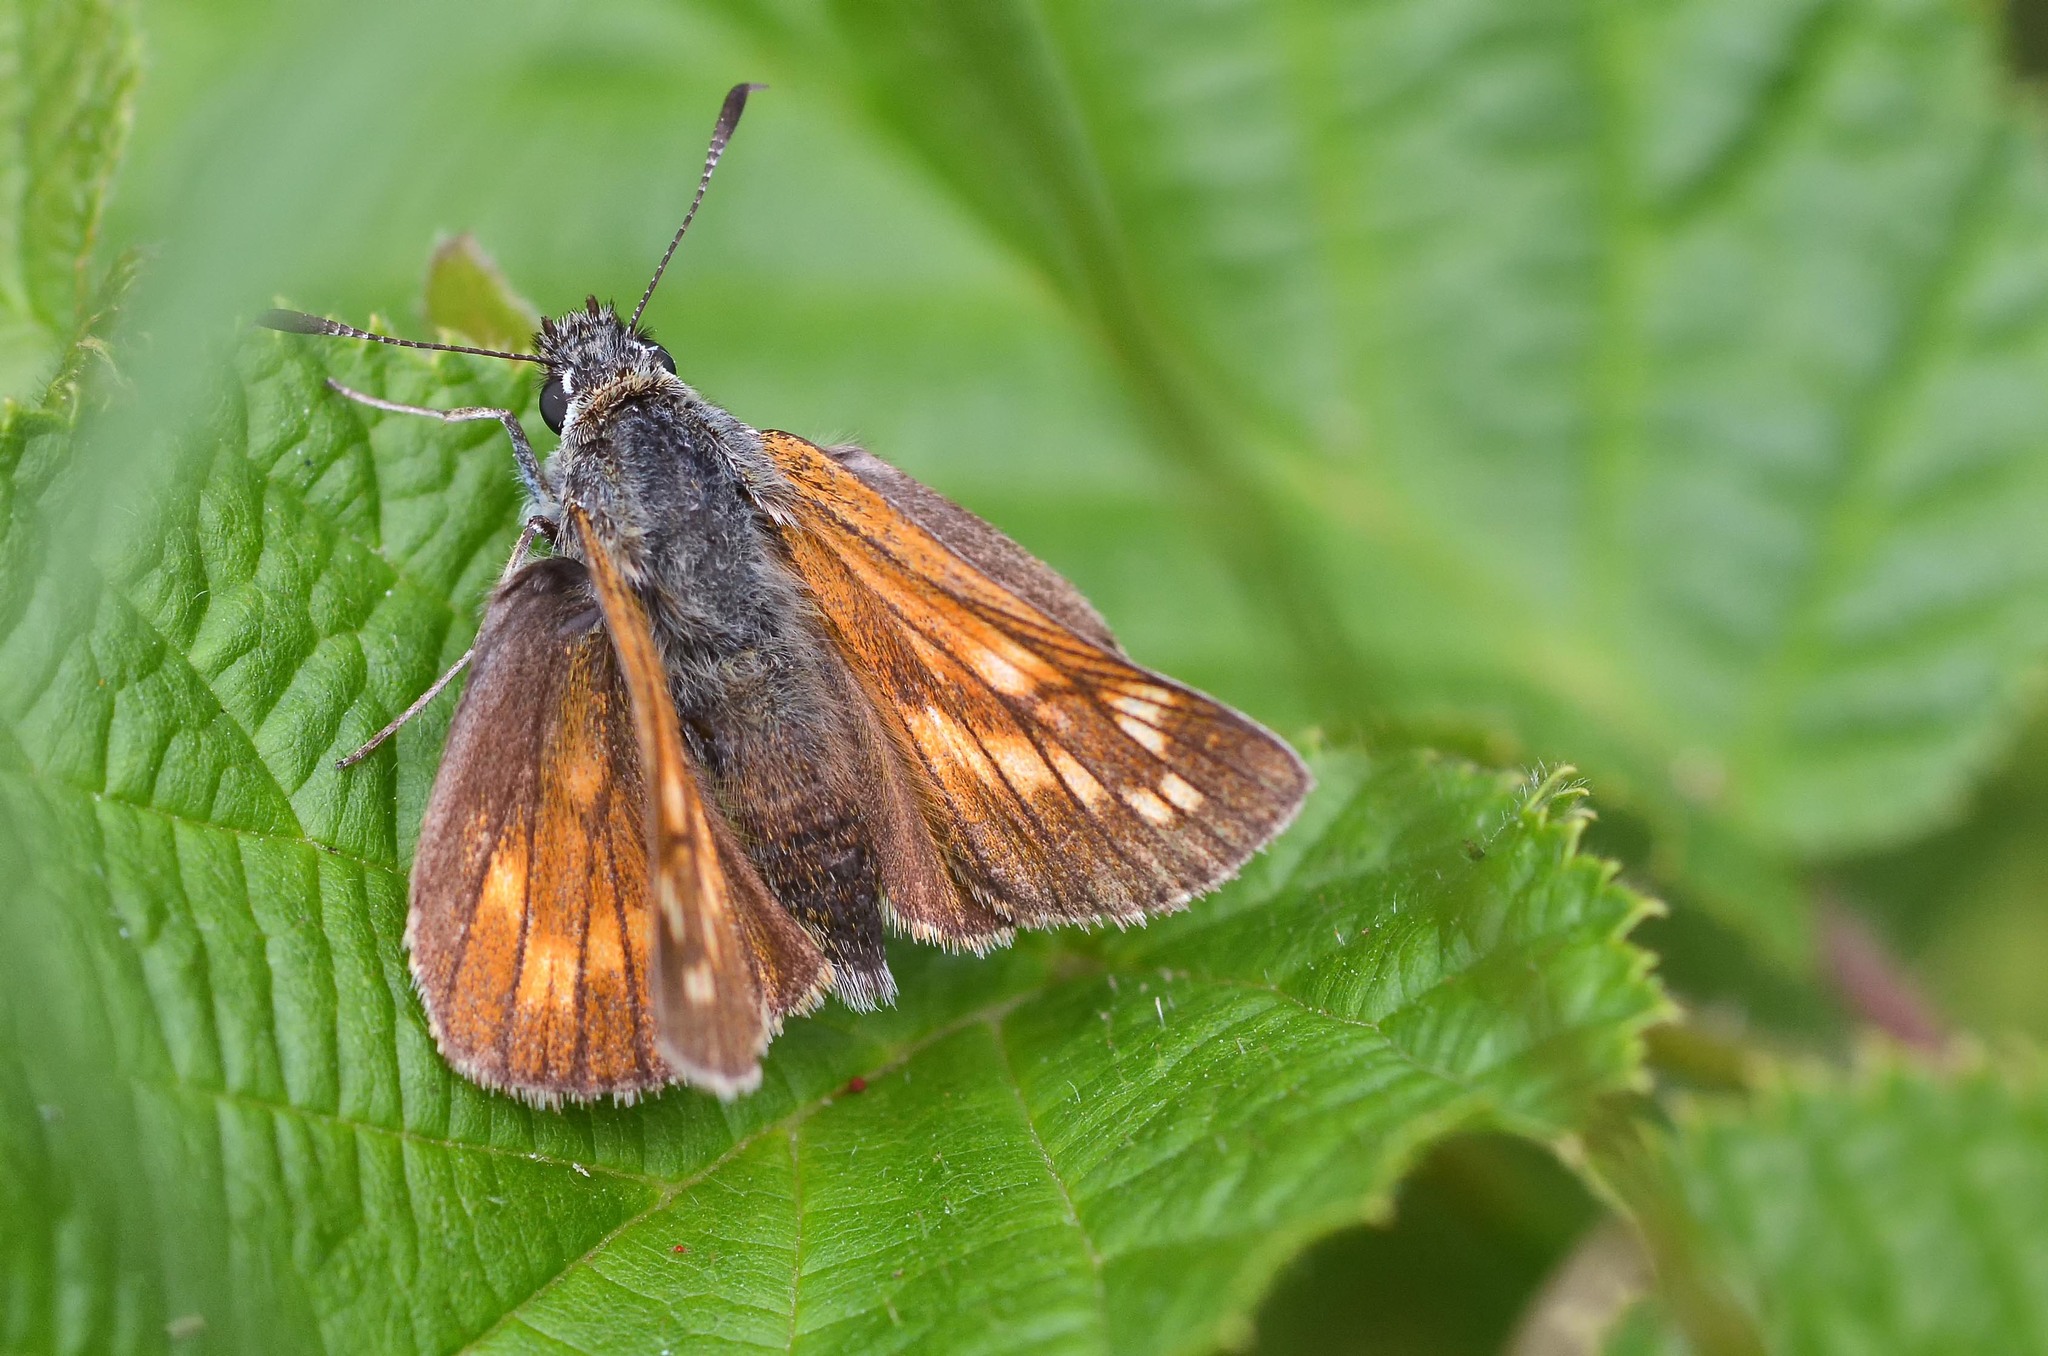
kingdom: Animalia
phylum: Arthropoda
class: Insecta
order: Lepidoptera
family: Hesperiidae
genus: Ochlodes
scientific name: Ochlodes venata
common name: Large skipper
